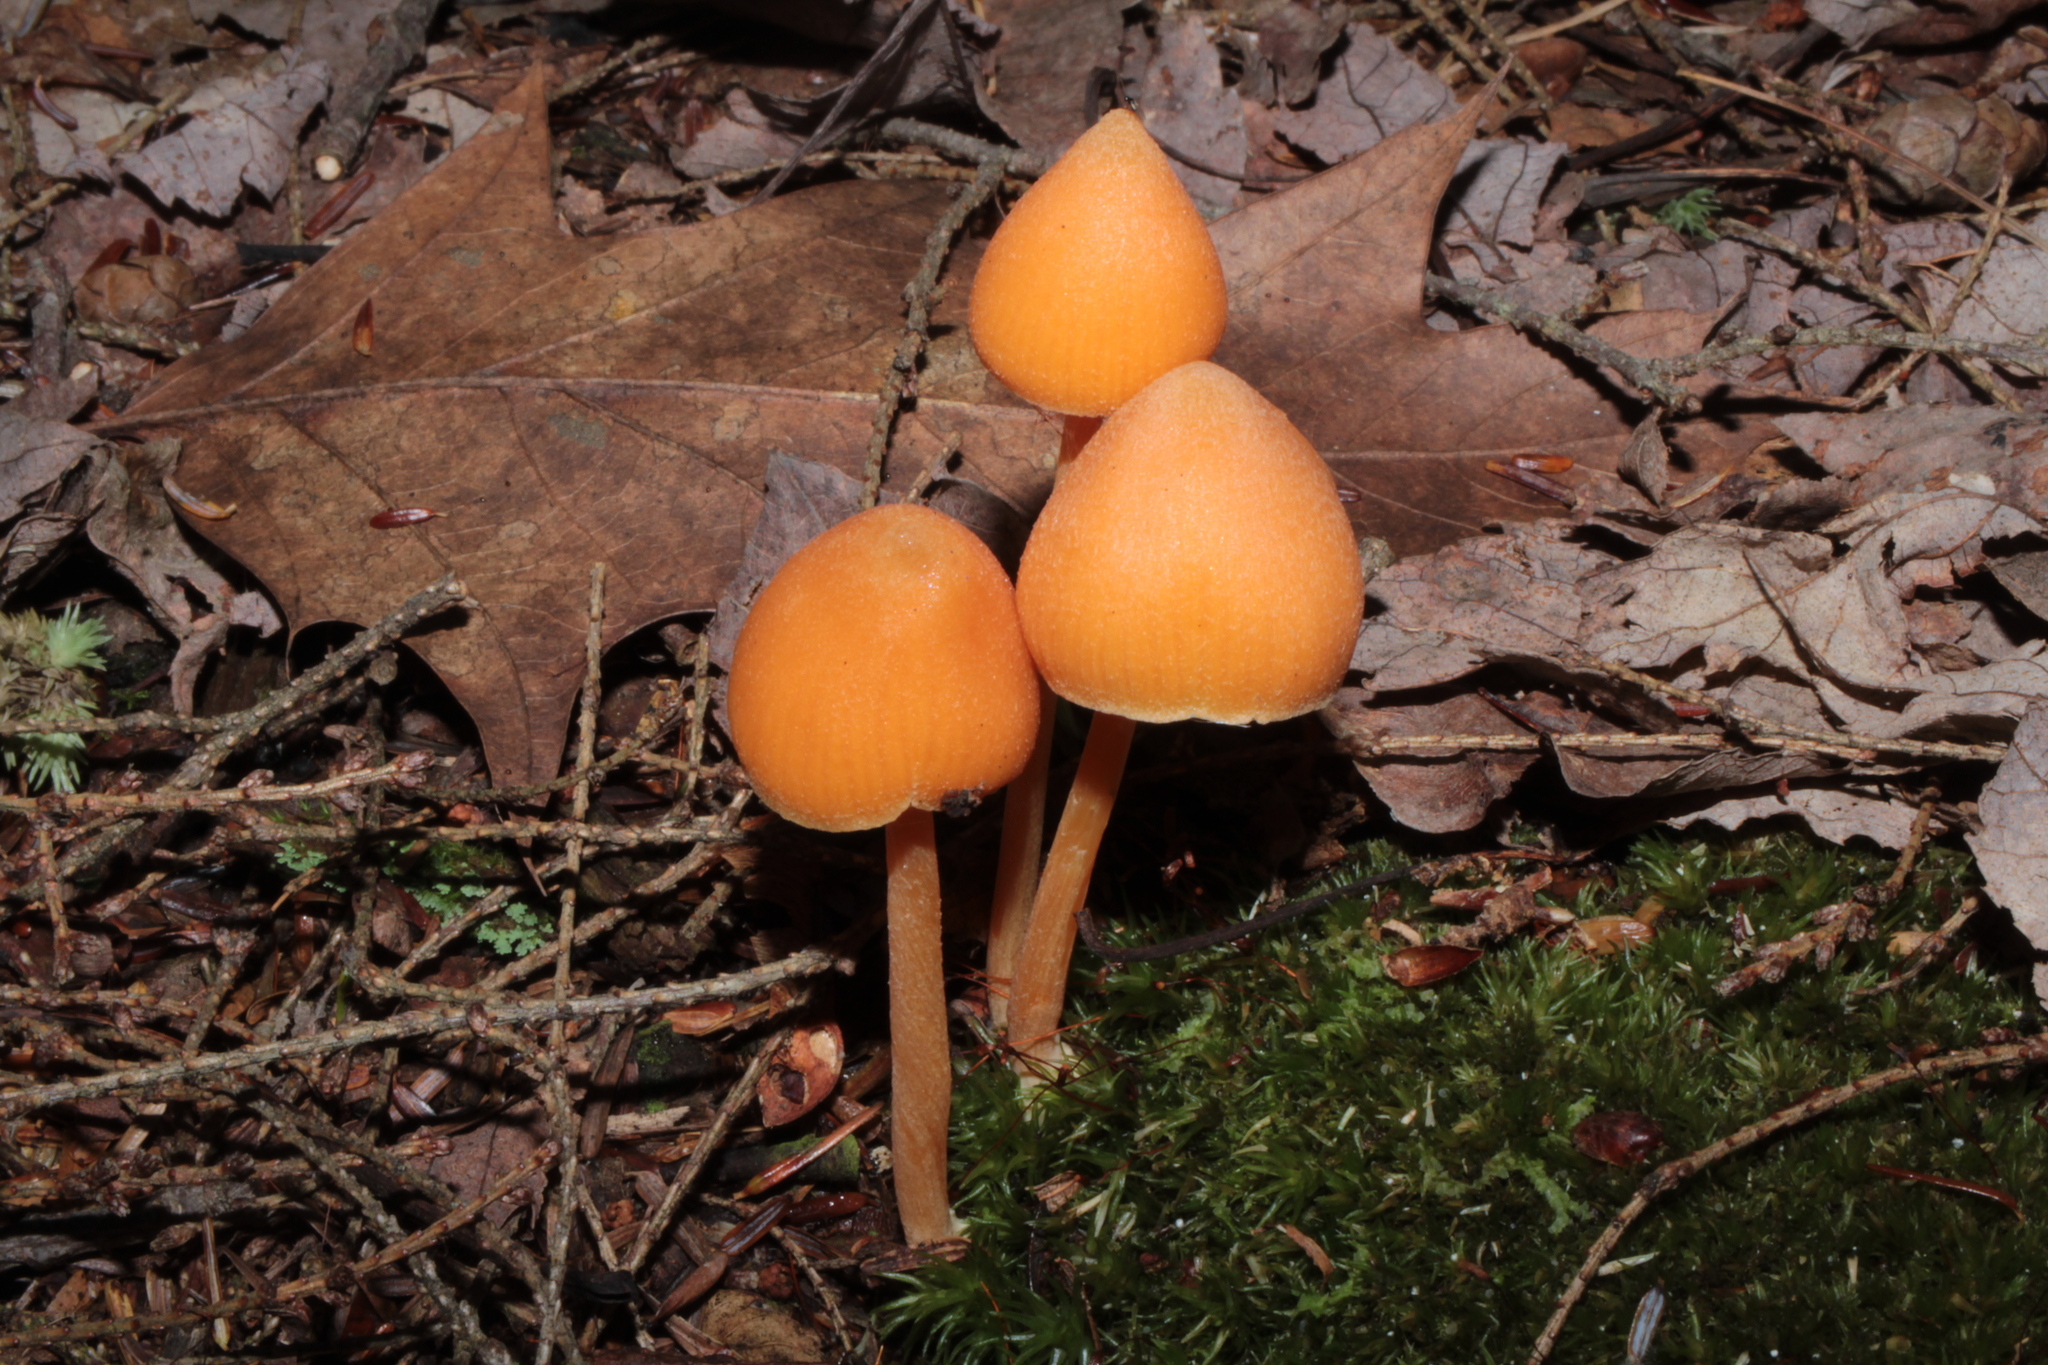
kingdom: Fungi
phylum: Basidiomycota
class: Agaricomycetes
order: Agaricales
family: Entolomataceae
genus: Entoloma
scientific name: Entoloma quadratum
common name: Salmon pinkgill
